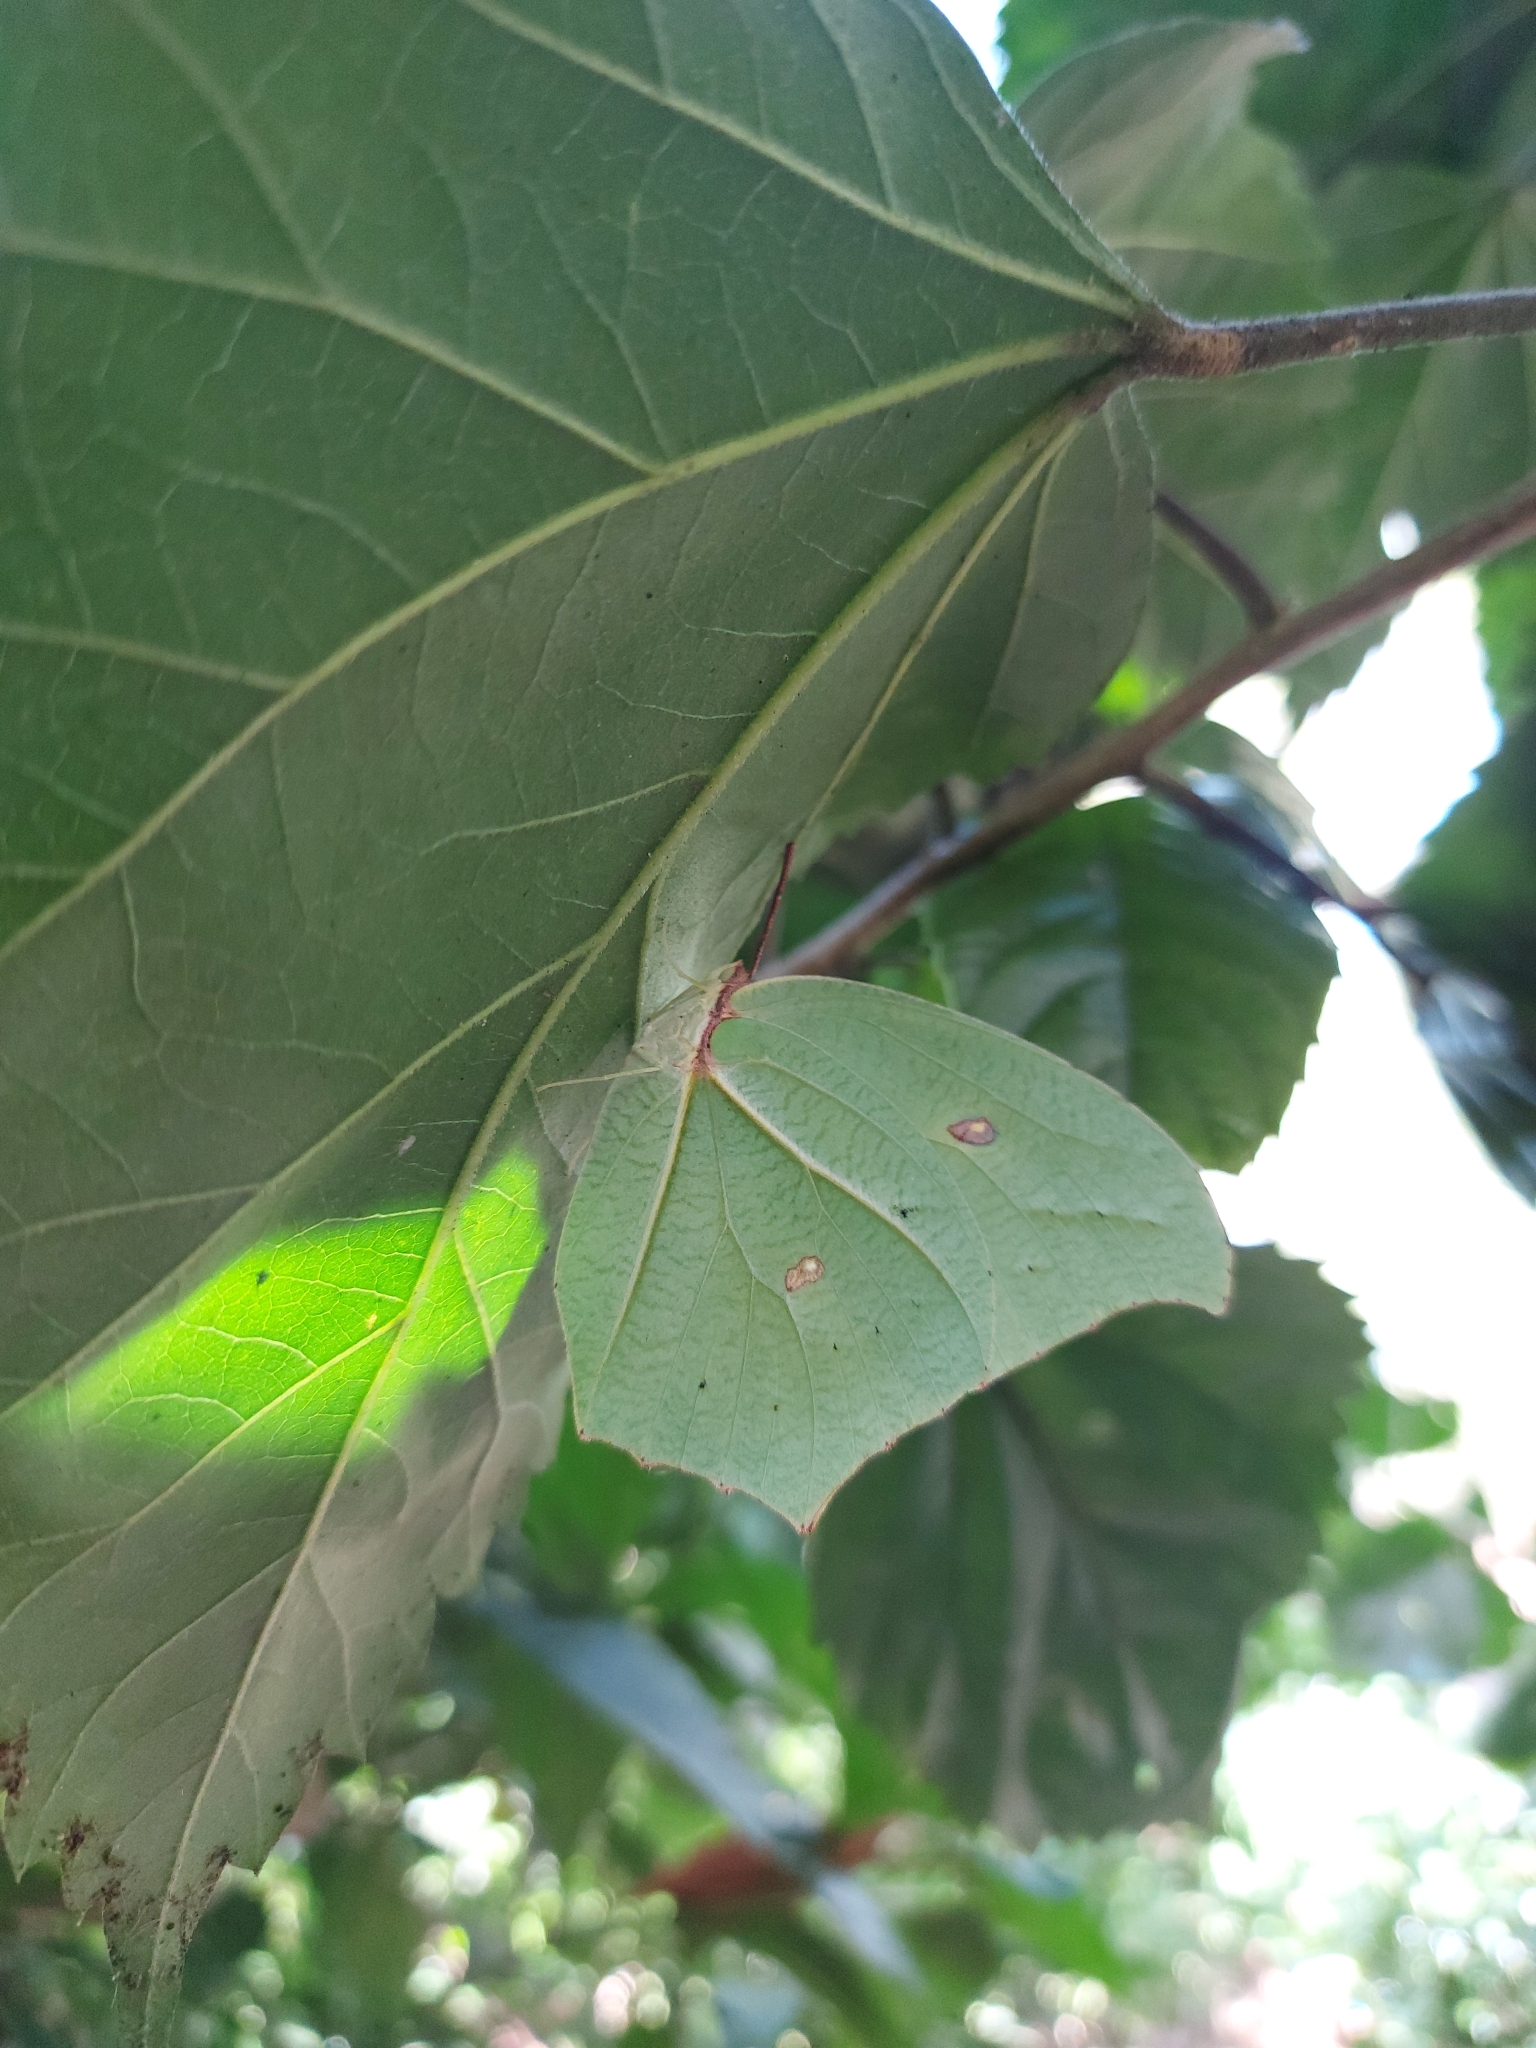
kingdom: Animalia
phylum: Arthropoda
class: Insecta
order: Lepidoptera
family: Pieridae
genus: Anteos
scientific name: Anteos maerula
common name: Angled sulphur
